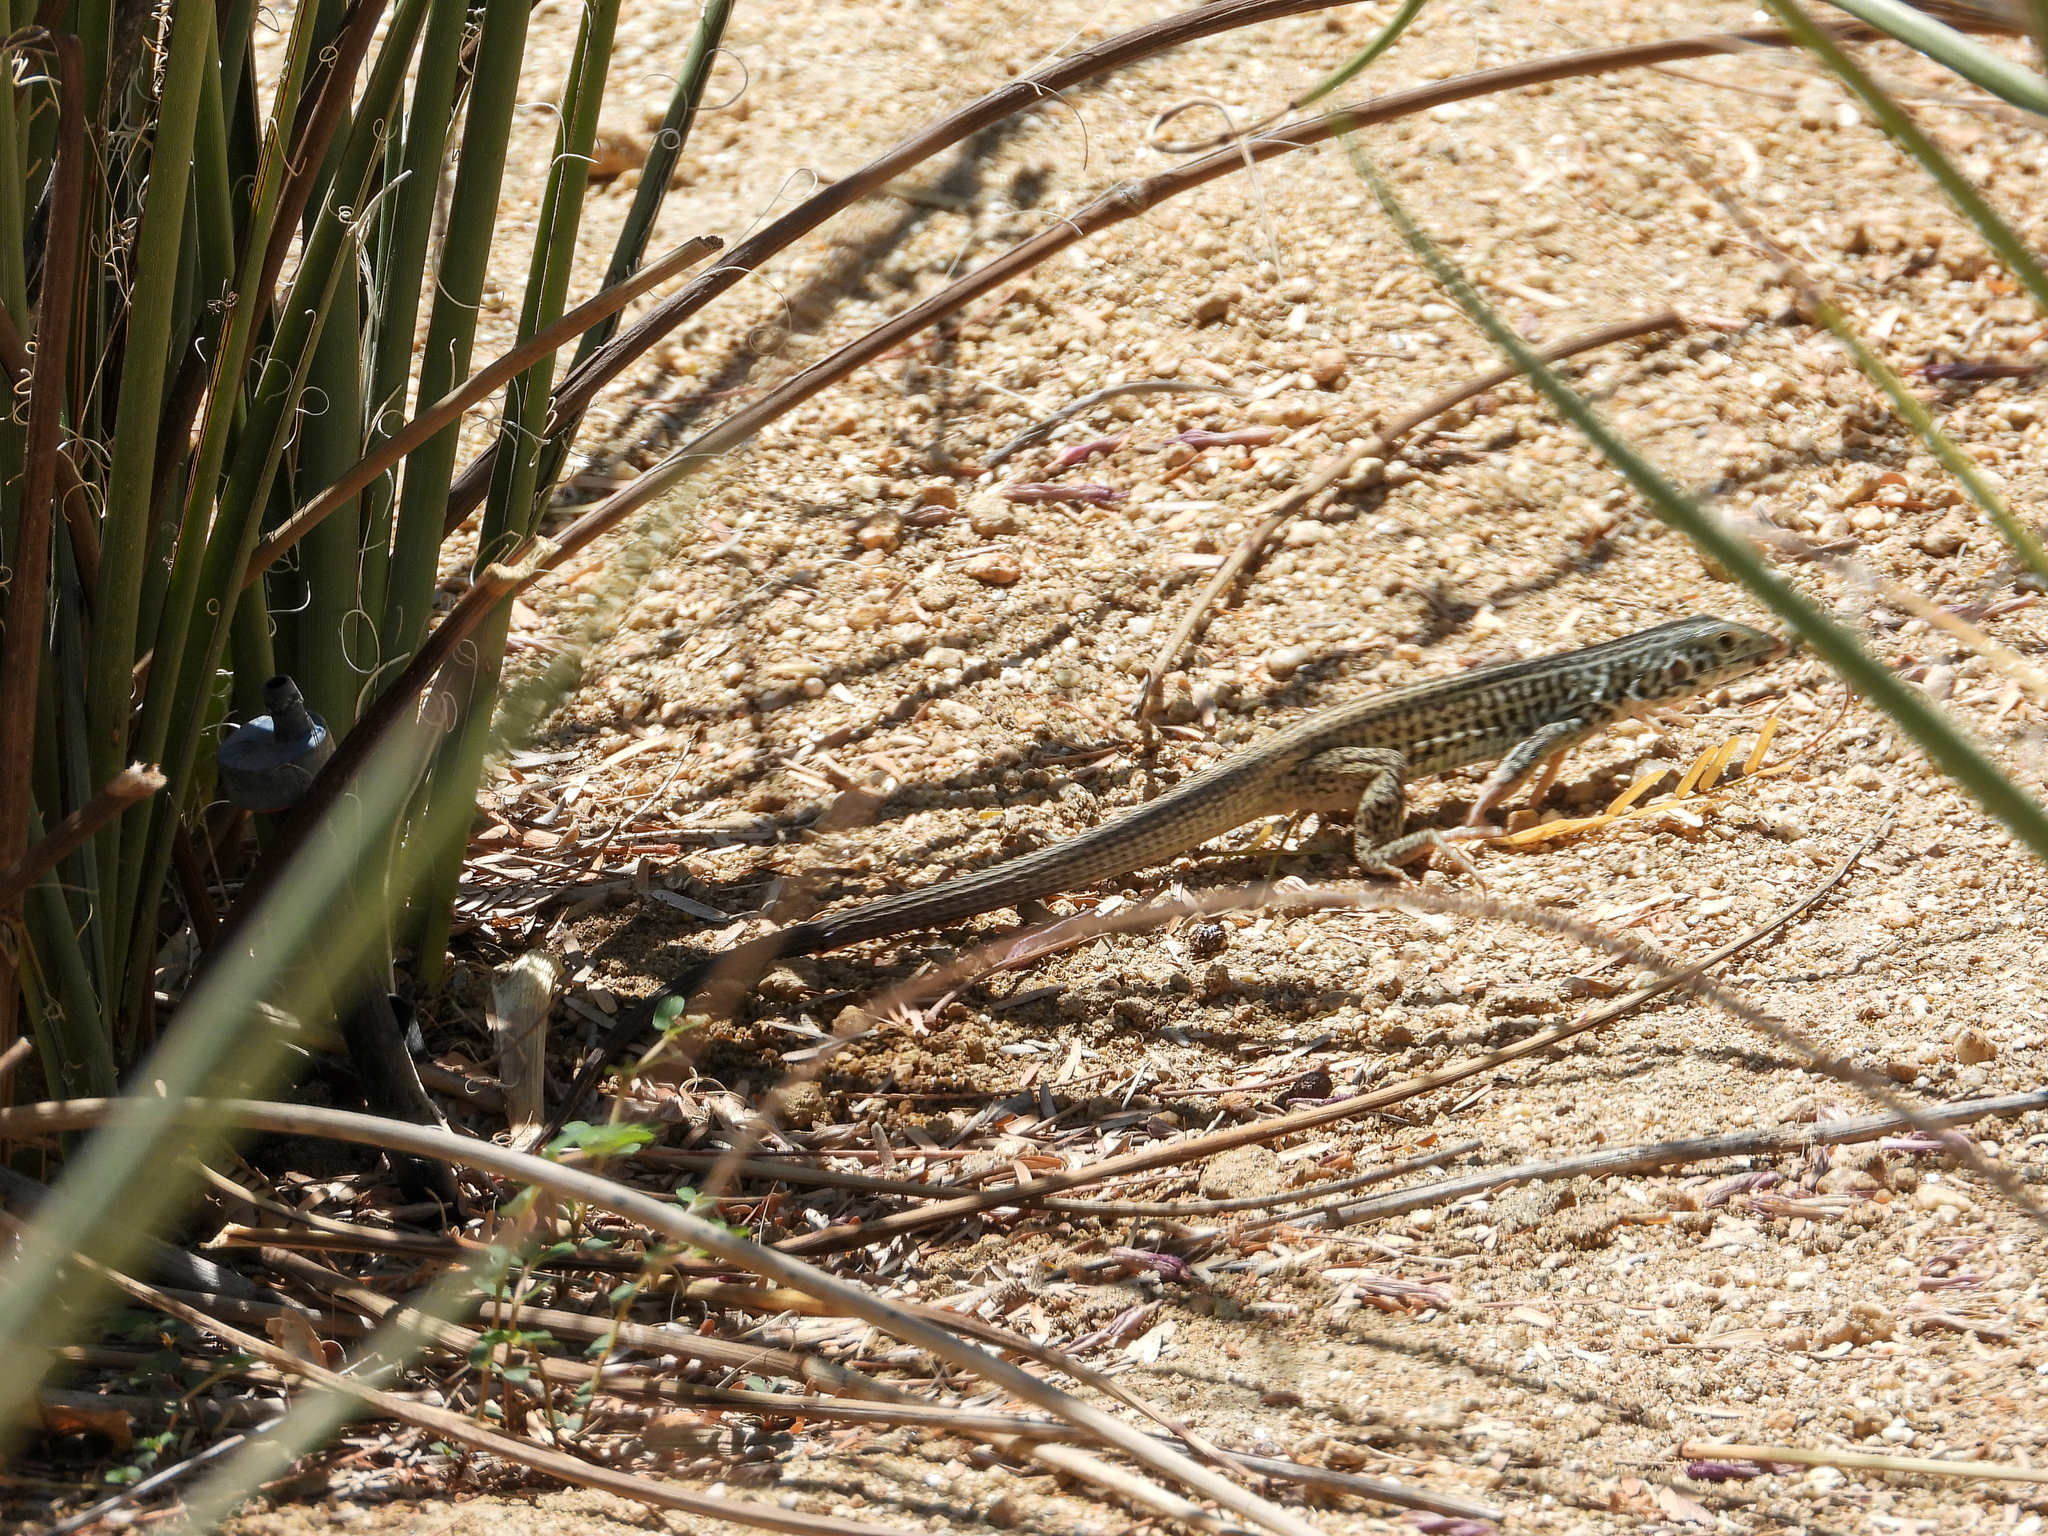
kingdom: Animalia
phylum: Chordata
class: Squamata
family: Teiidae
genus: Aspidoscelis
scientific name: Aspidoscelis tigris
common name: Tiger whiptail
